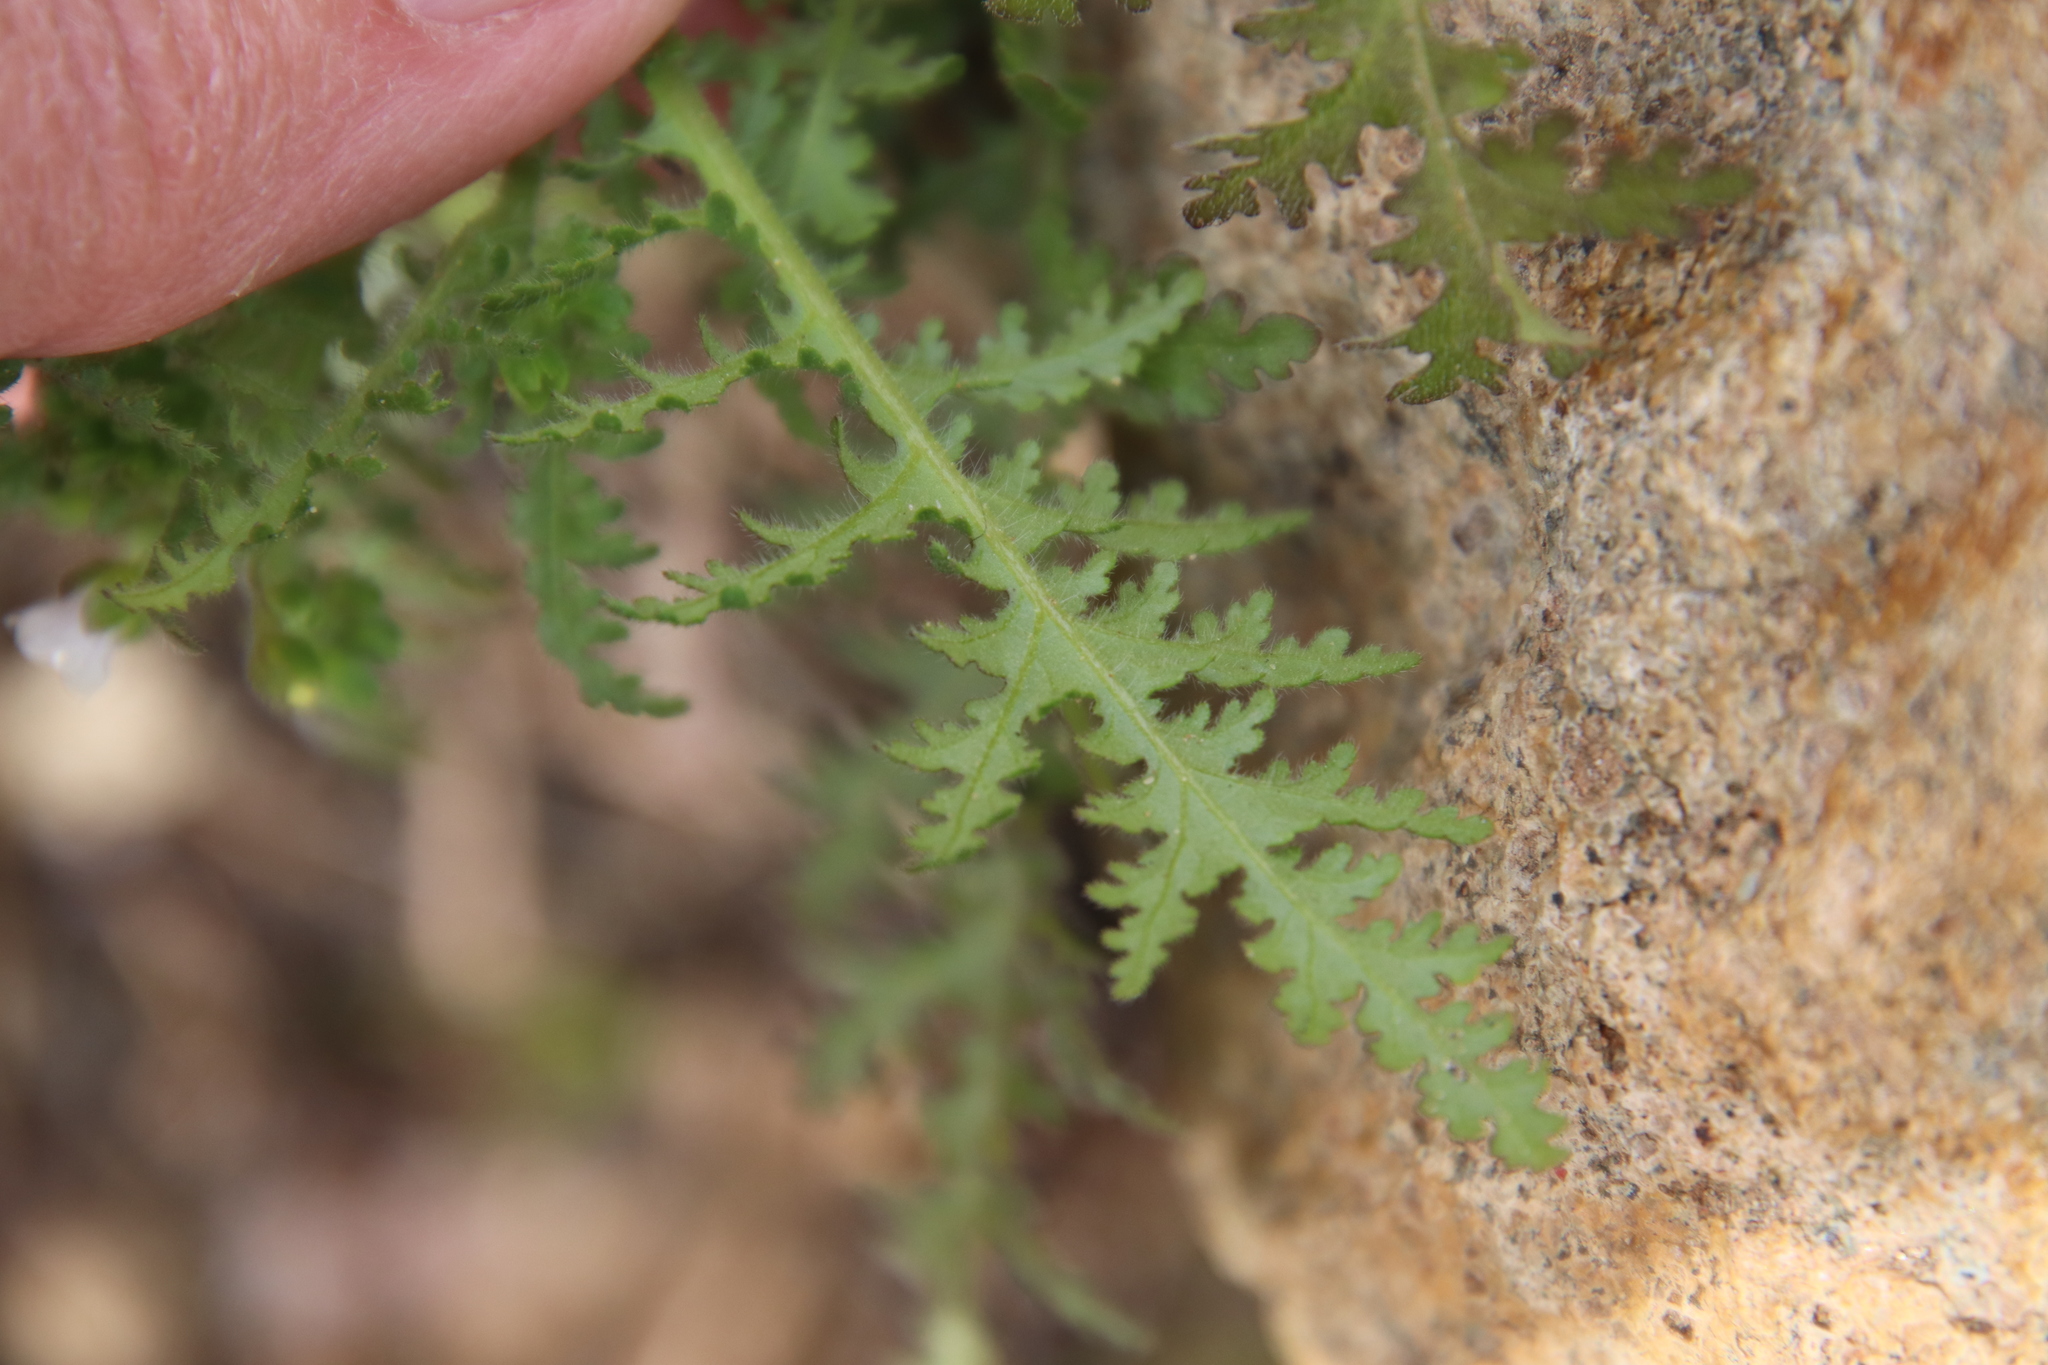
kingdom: Plantae
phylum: Tracheophyta
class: Magnoliopsida
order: Boraginales
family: Hydrophyllaceae
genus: Eucrypta
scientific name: Eucrypta chrysanthemifolia
